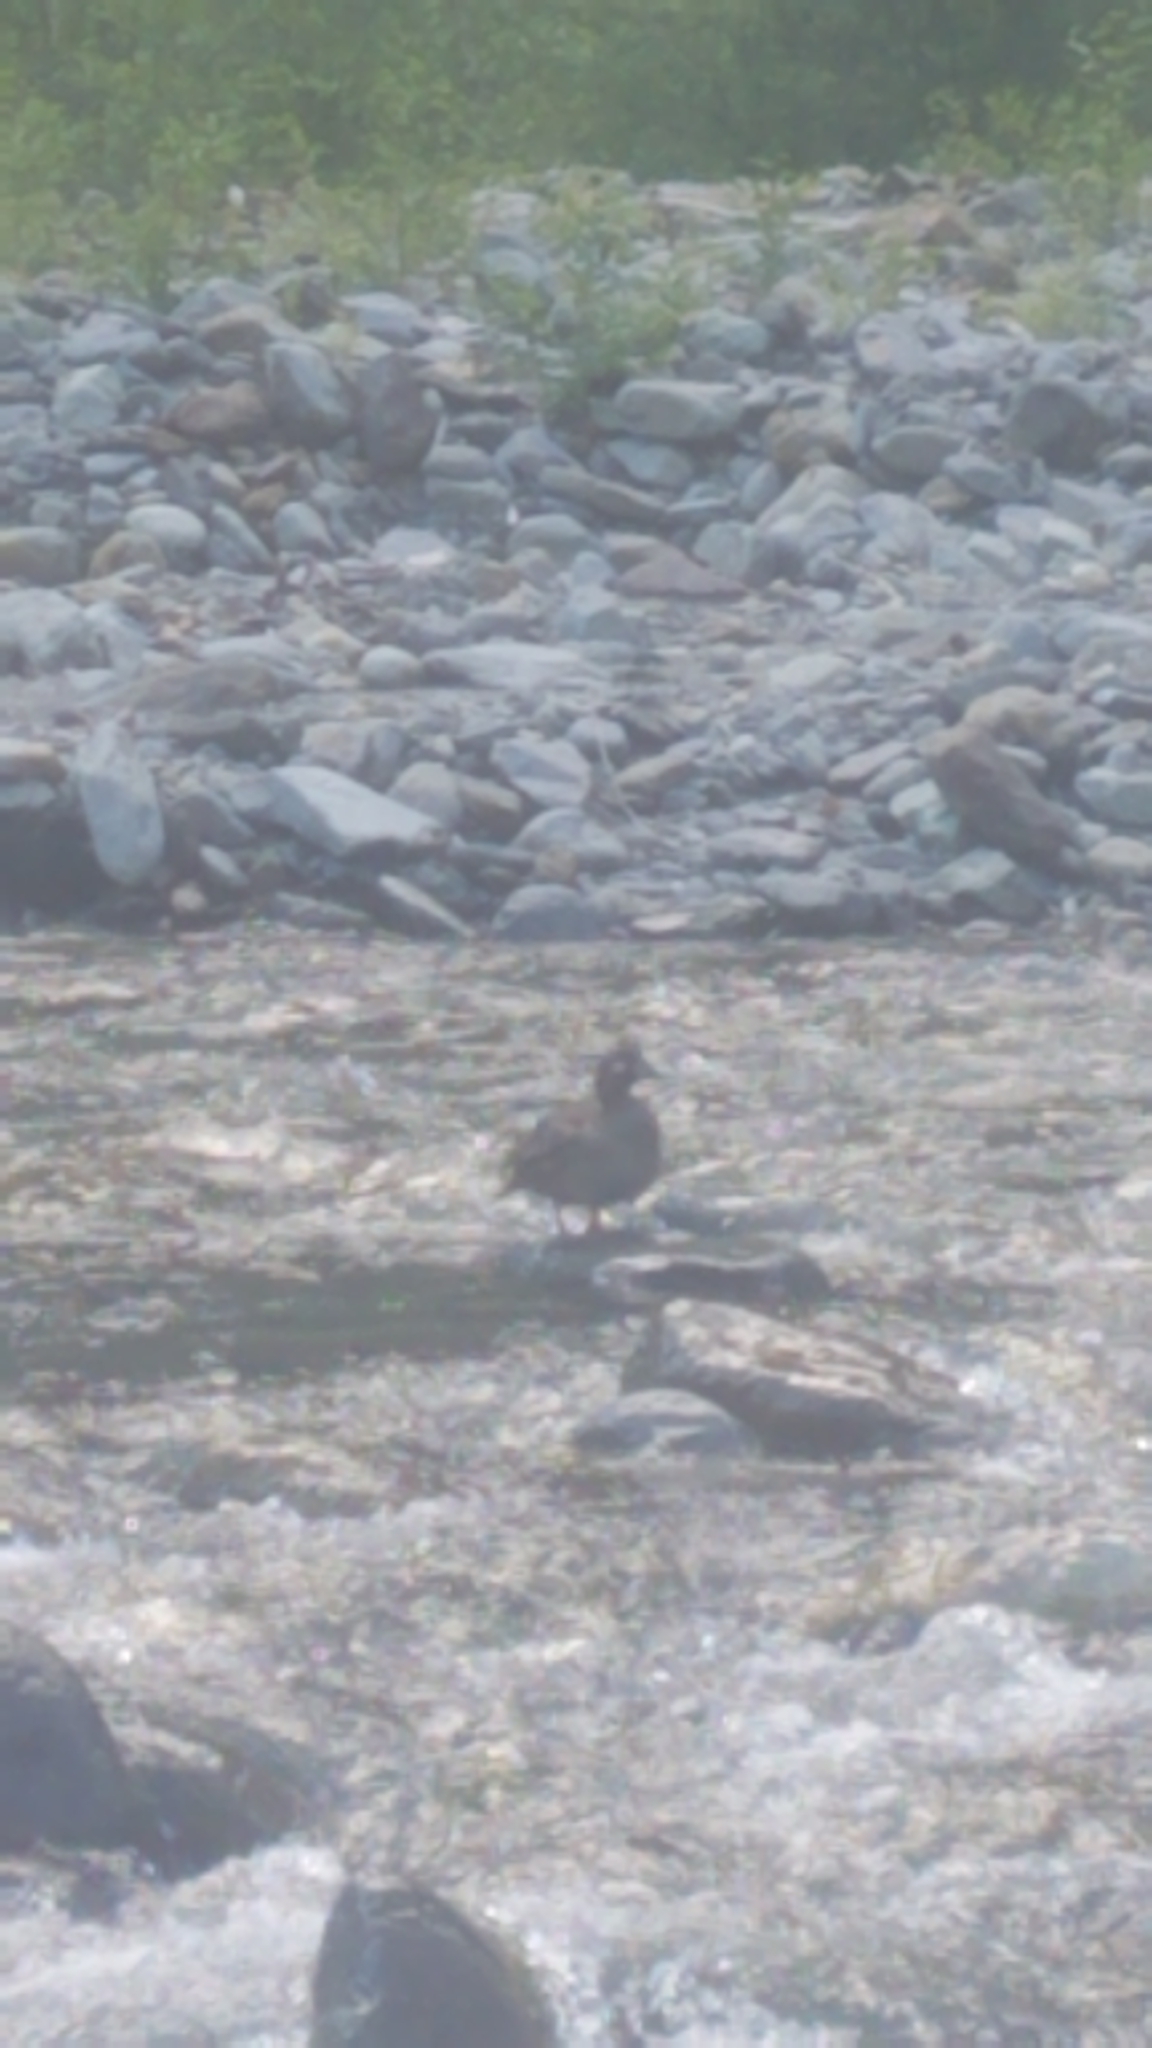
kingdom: Animalia
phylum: Chordata
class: Aves
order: Anseriformes
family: Anatidae
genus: Histrionicus
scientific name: Histrionicus histrionicus
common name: Harlequin duck
